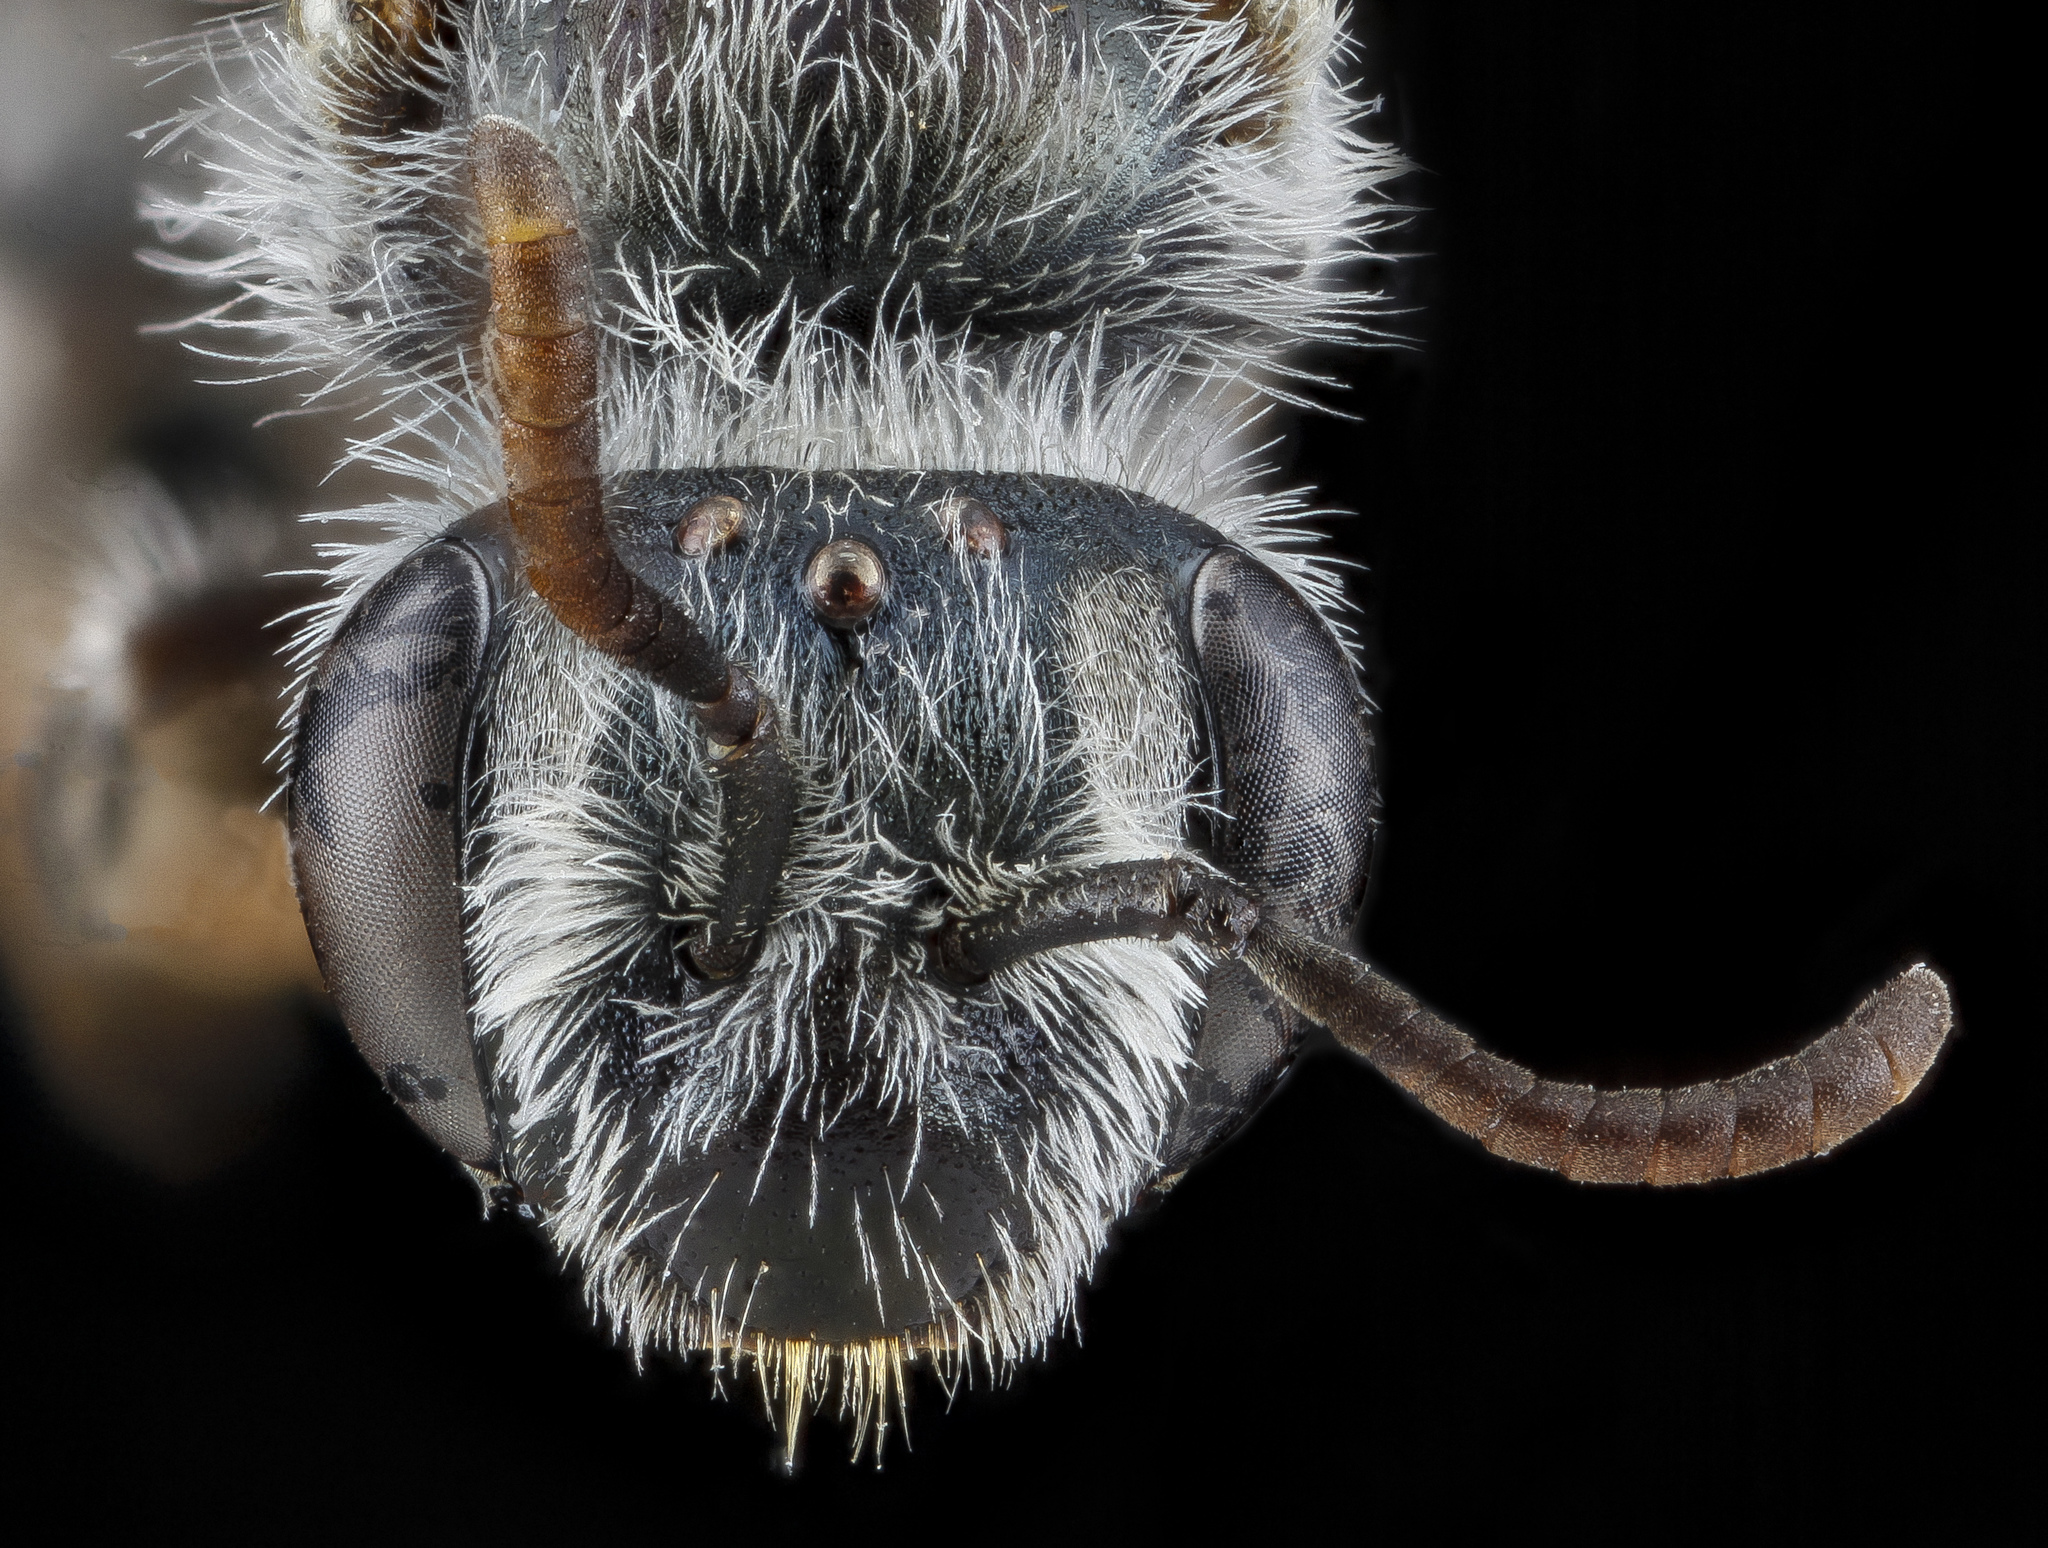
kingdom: Animalia
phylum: Arthropoda
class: Insecta
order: Hymenoptera
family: Andrenidae
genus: Andrena
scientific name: Andrena illinoiensis
